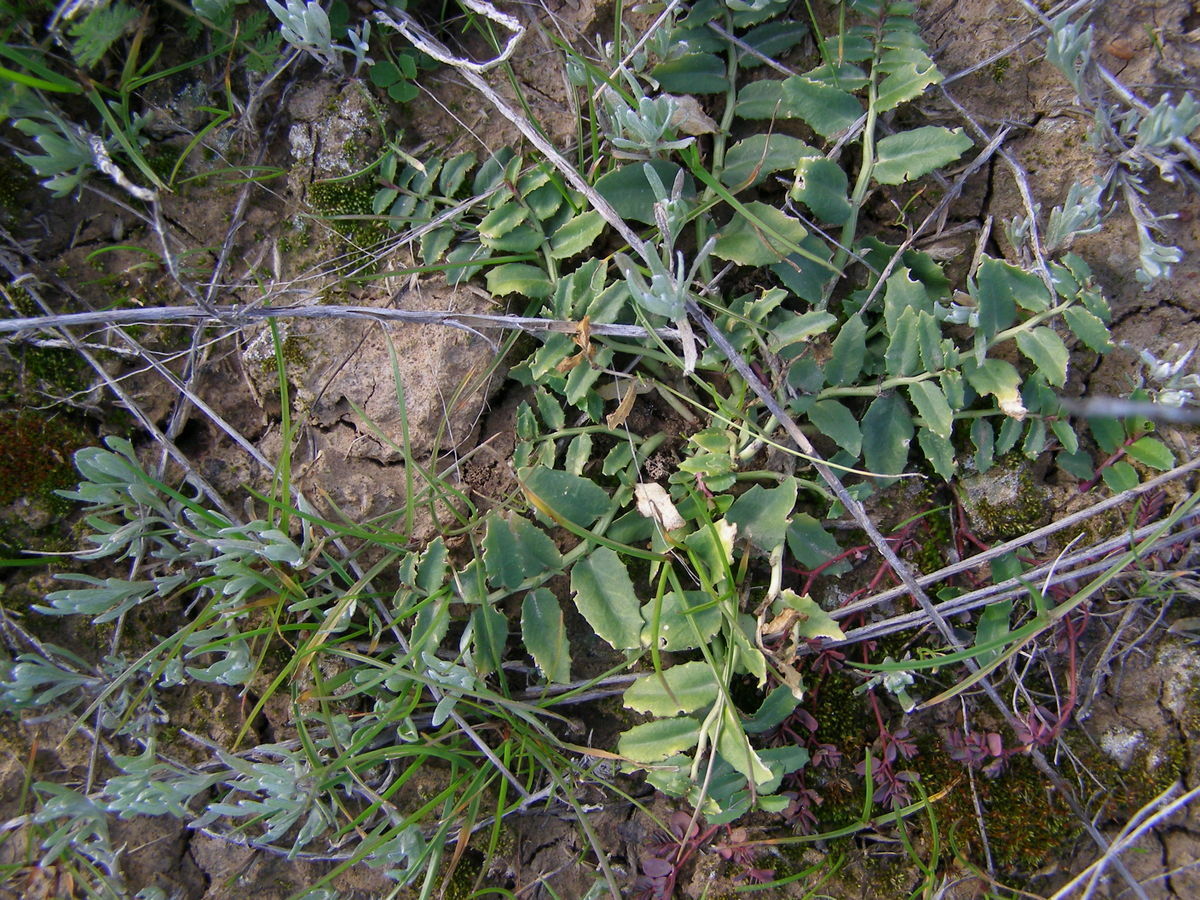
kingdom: Plantae
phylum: Tracheophyta
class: Magnoliopsida
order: Asterales
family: Campanulaceae
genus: Lobelia
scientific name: Lobelia concolor
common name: Poison pratia
